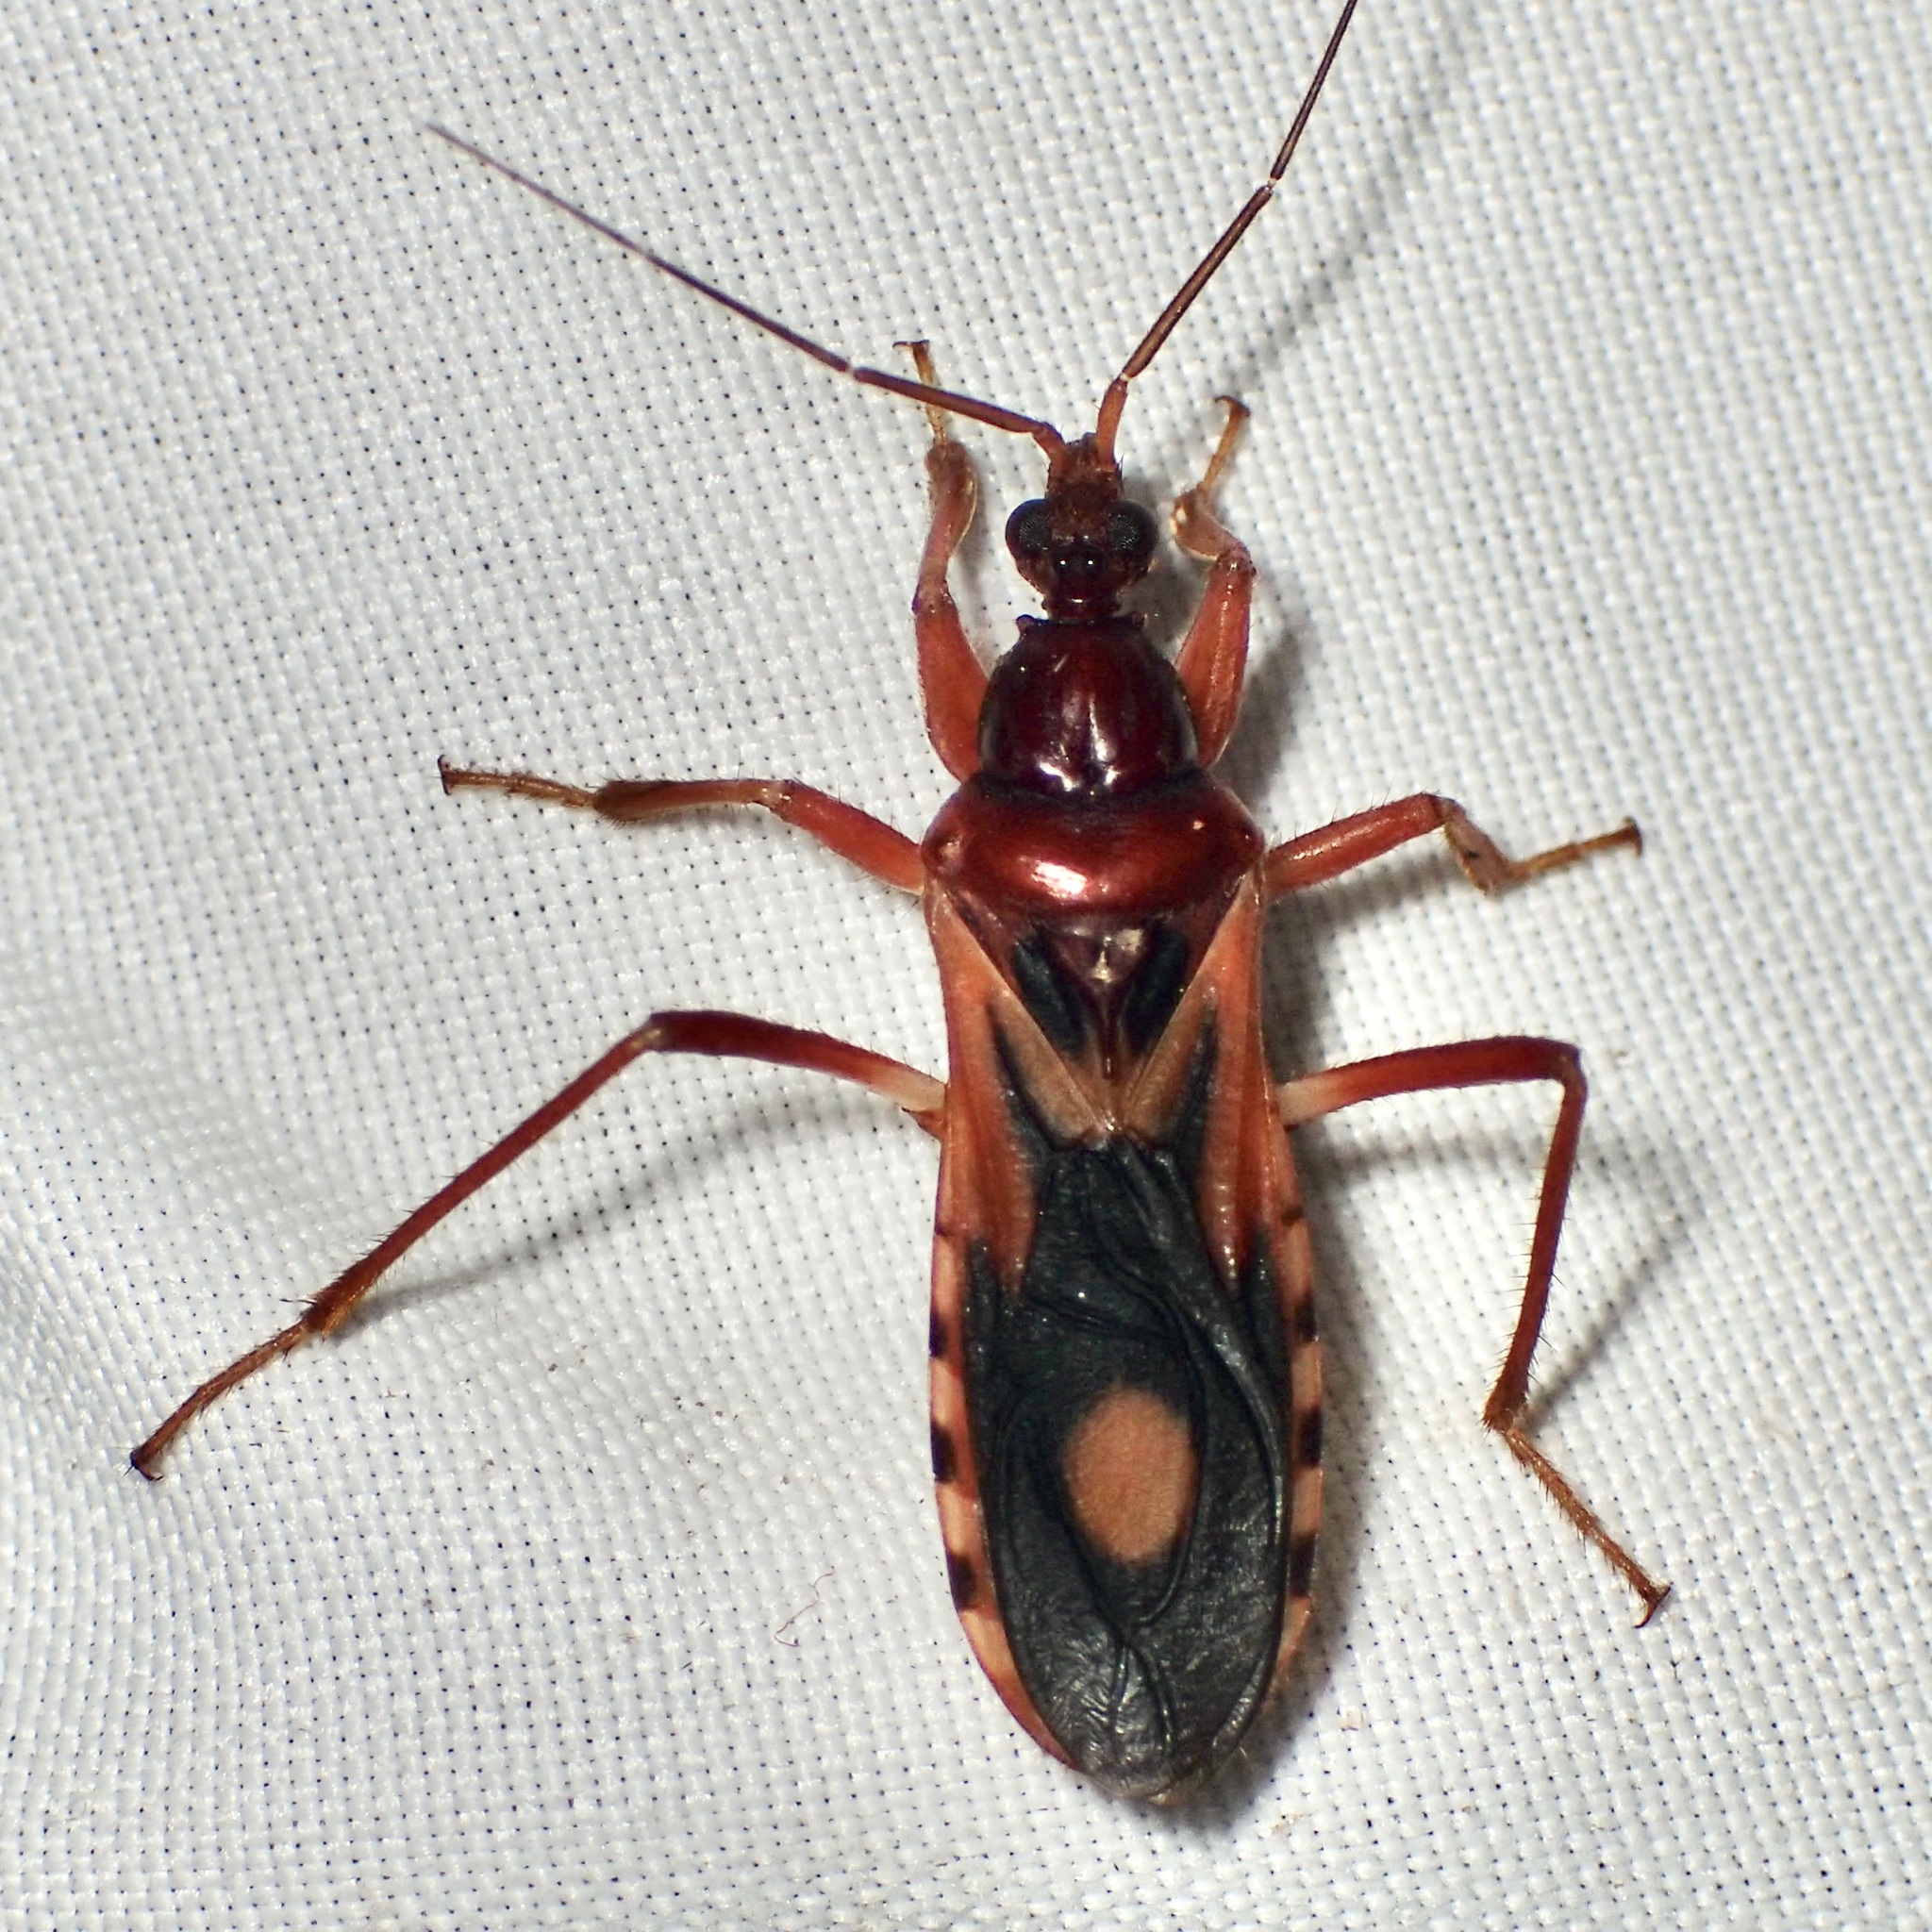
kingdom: Animalia
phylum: Arthropoda
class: Insecta
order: Hemiptera
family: Reduviidae
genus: Rasahus
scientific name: Rasahus thoracicus
